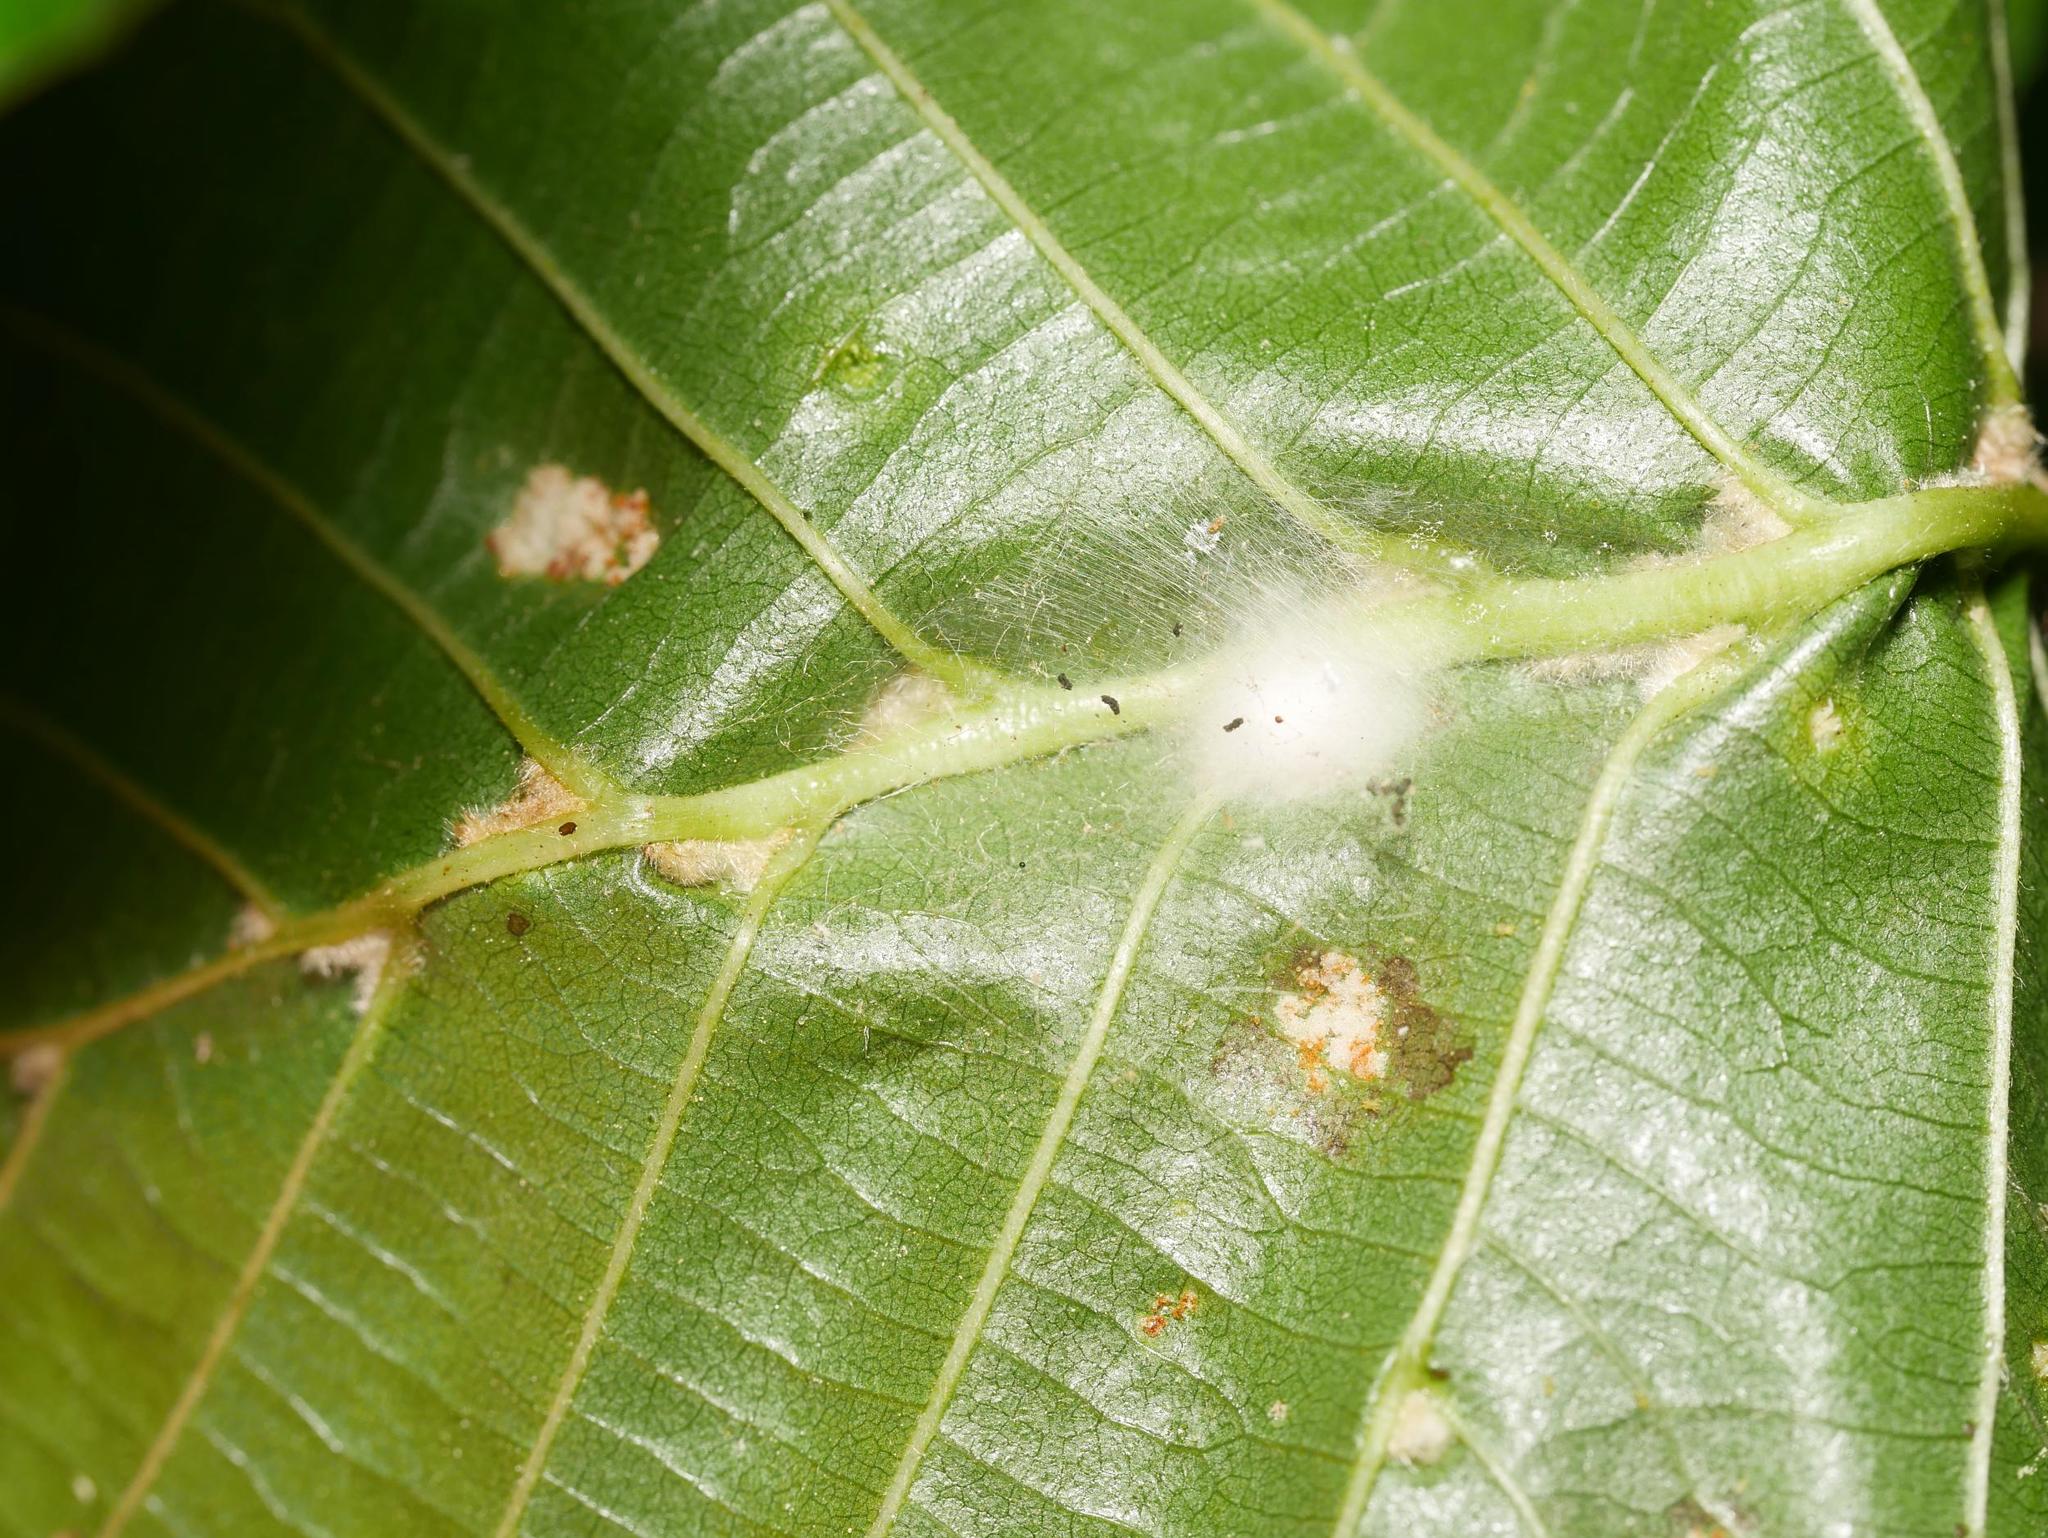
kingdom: Animalia
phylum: Arthropoda
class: Arachnida
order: Trombidiformes
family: Eriophyidae
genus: Eriophyes
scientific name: Eriophyes inangulis
